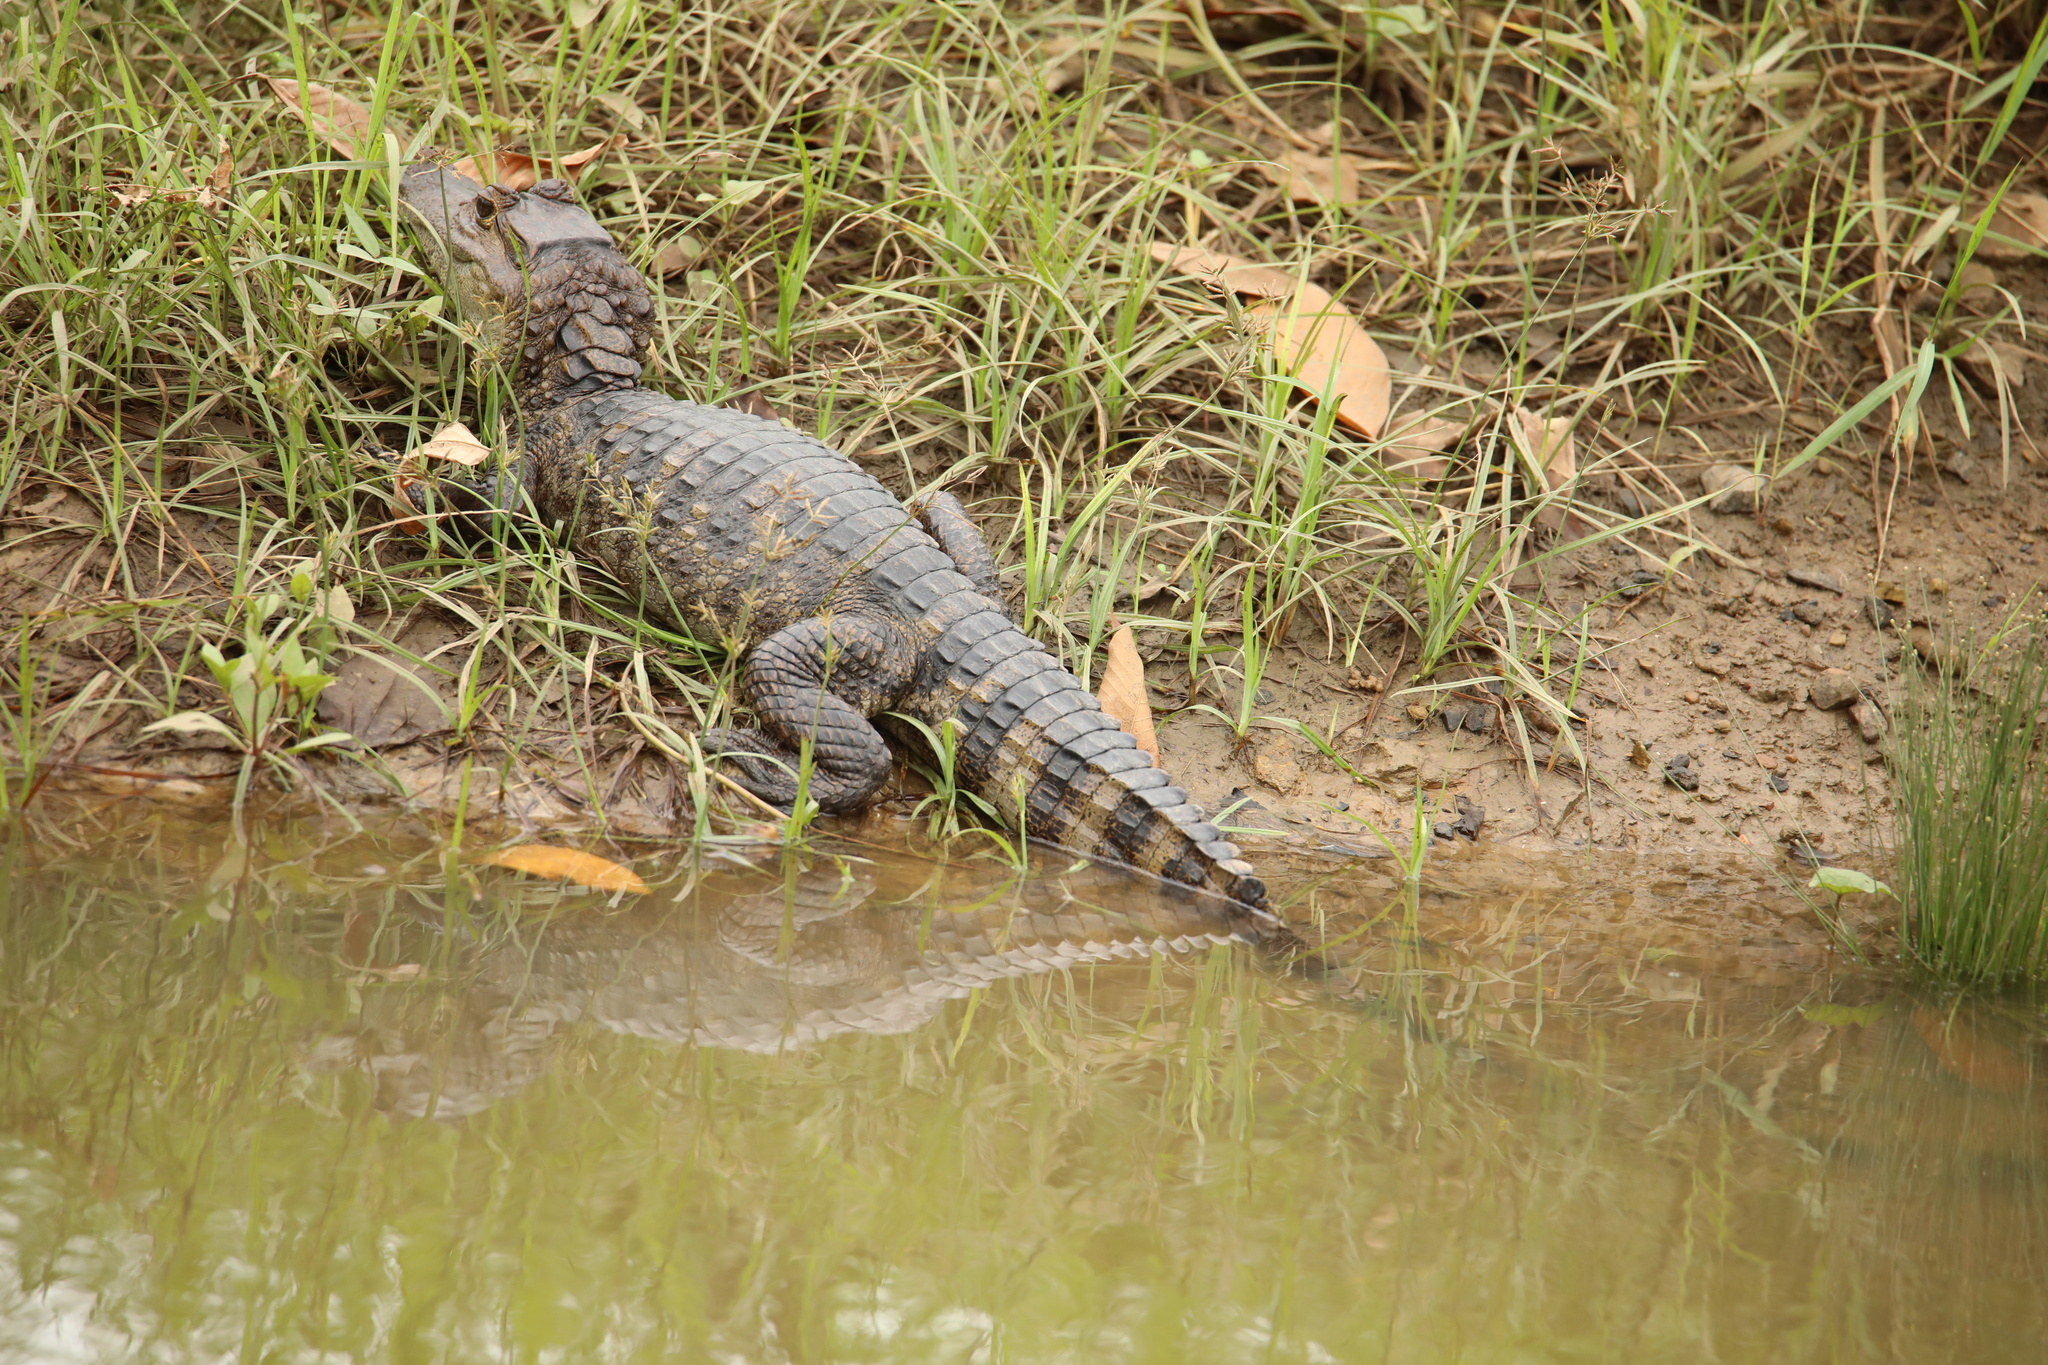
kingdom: Animalia
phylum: Chordata
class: Crocodylia
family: Alligatoridae
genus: Caiman
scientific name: Caiman crocodilus
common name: Common caiman
